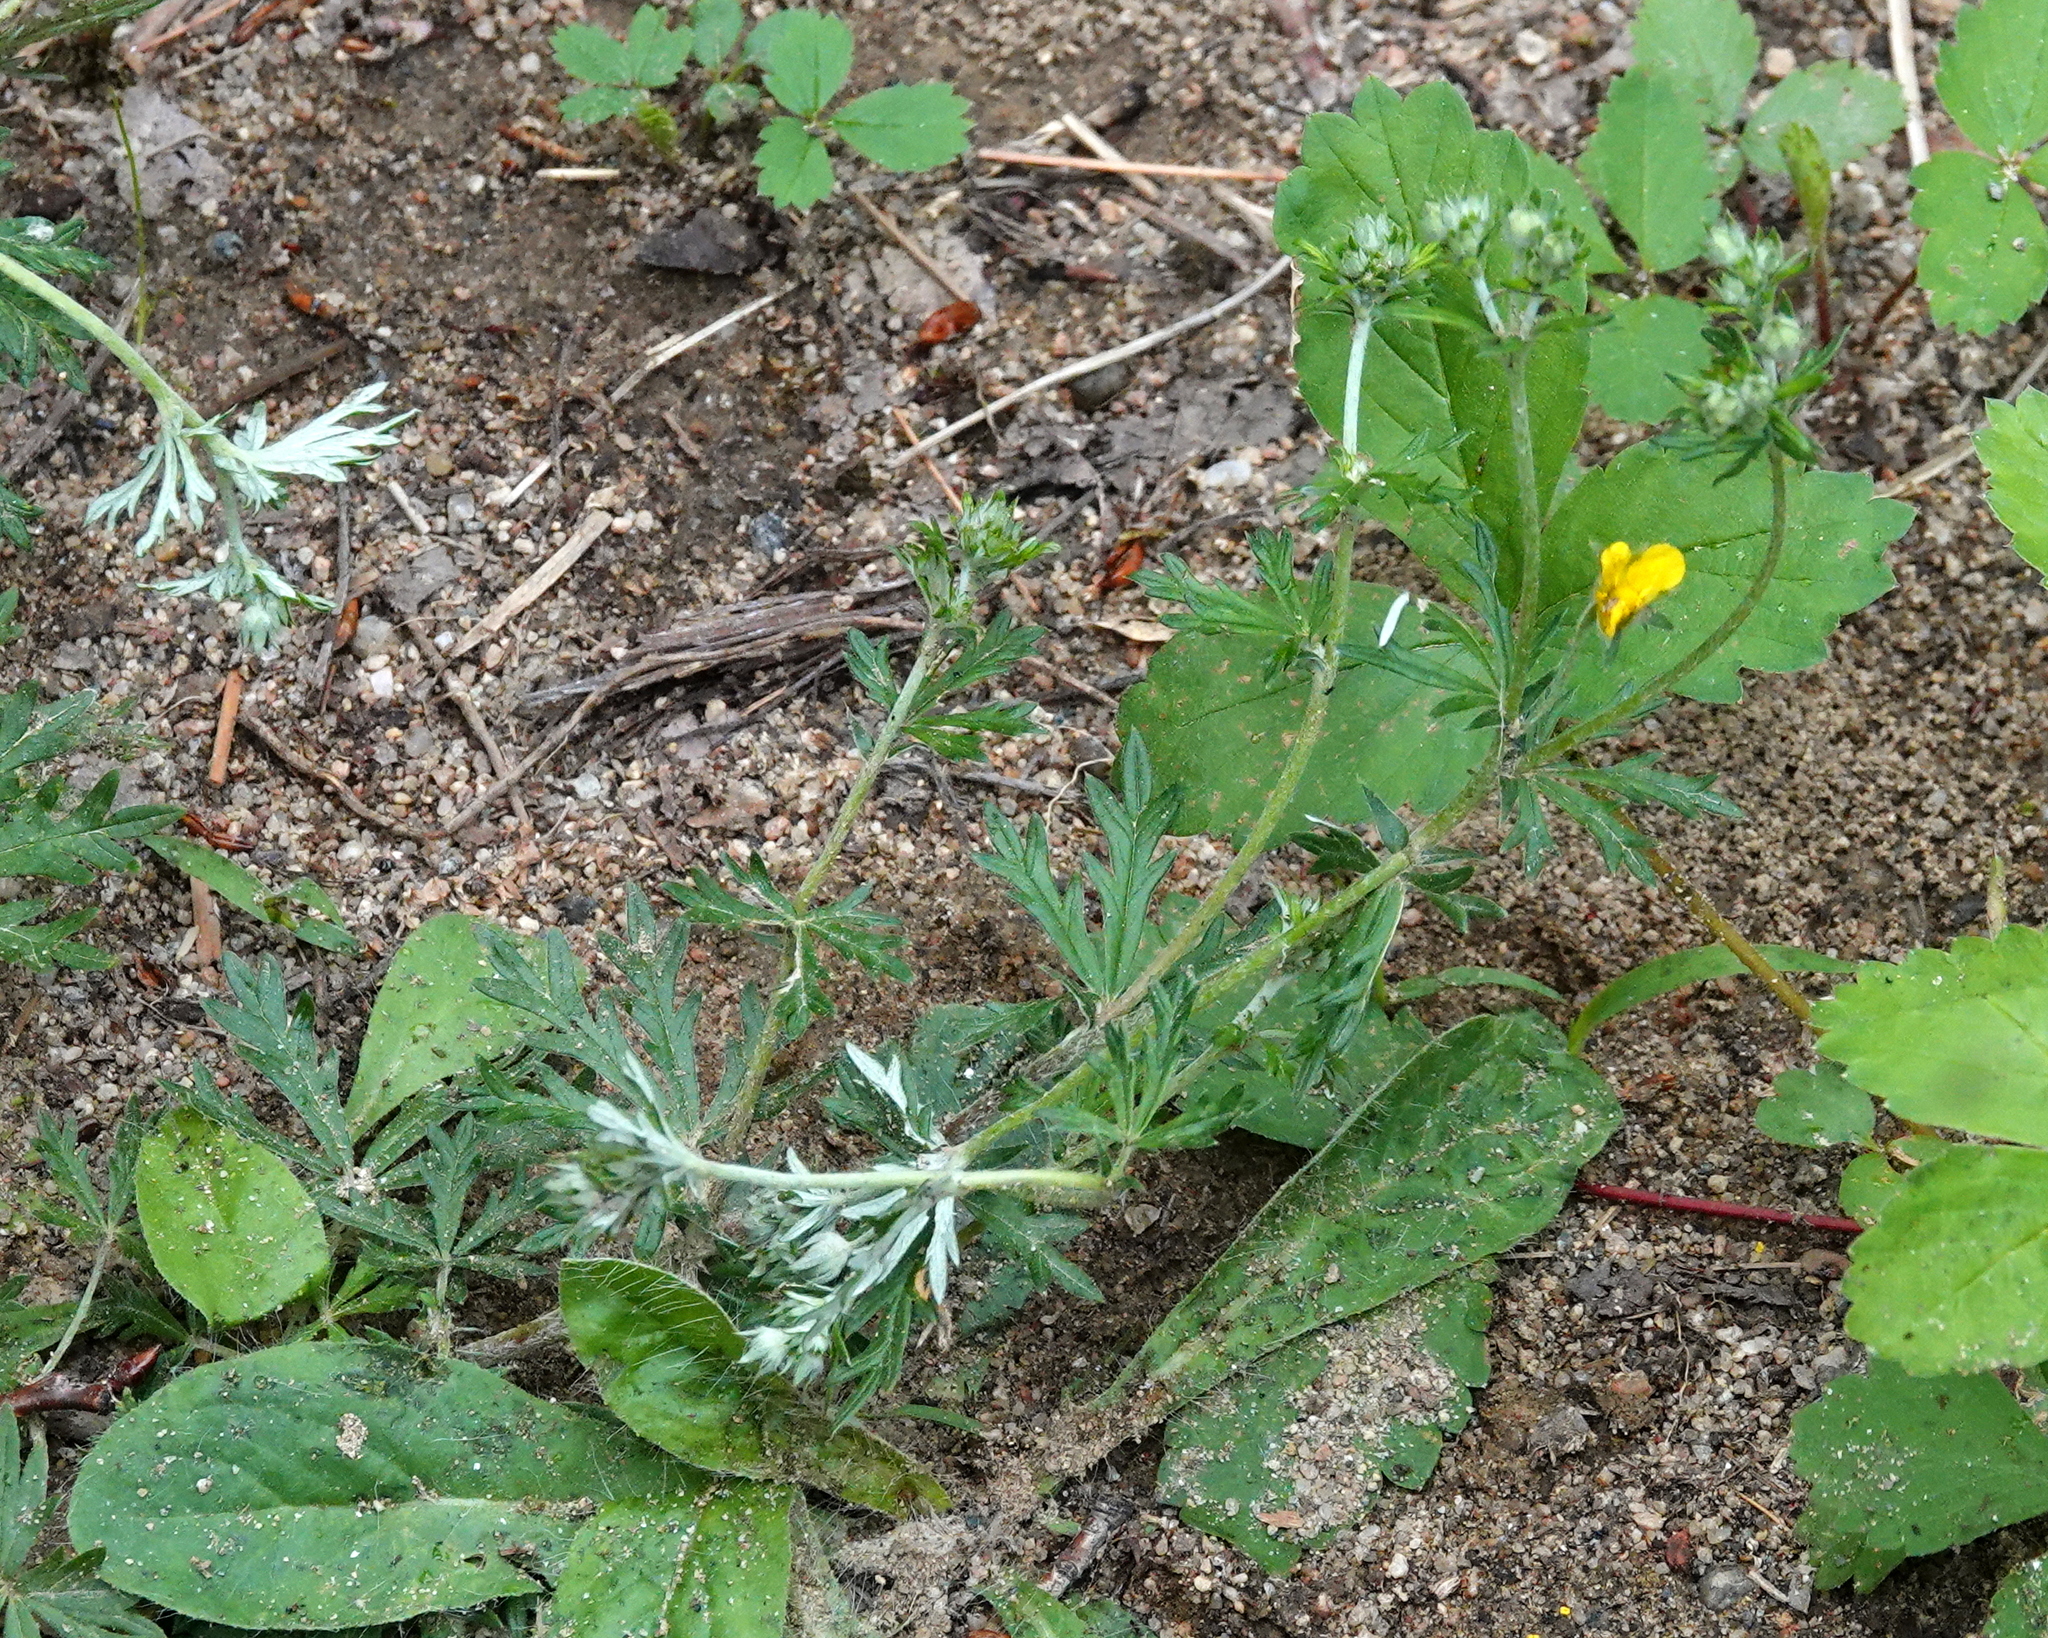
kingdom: Plantae
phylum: Tracheophyta
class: Magnoliopsida
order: Rosales
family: Rosaceae
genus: Potentilla
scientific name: Potentilla argentea
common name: Hoary cinquefoil
